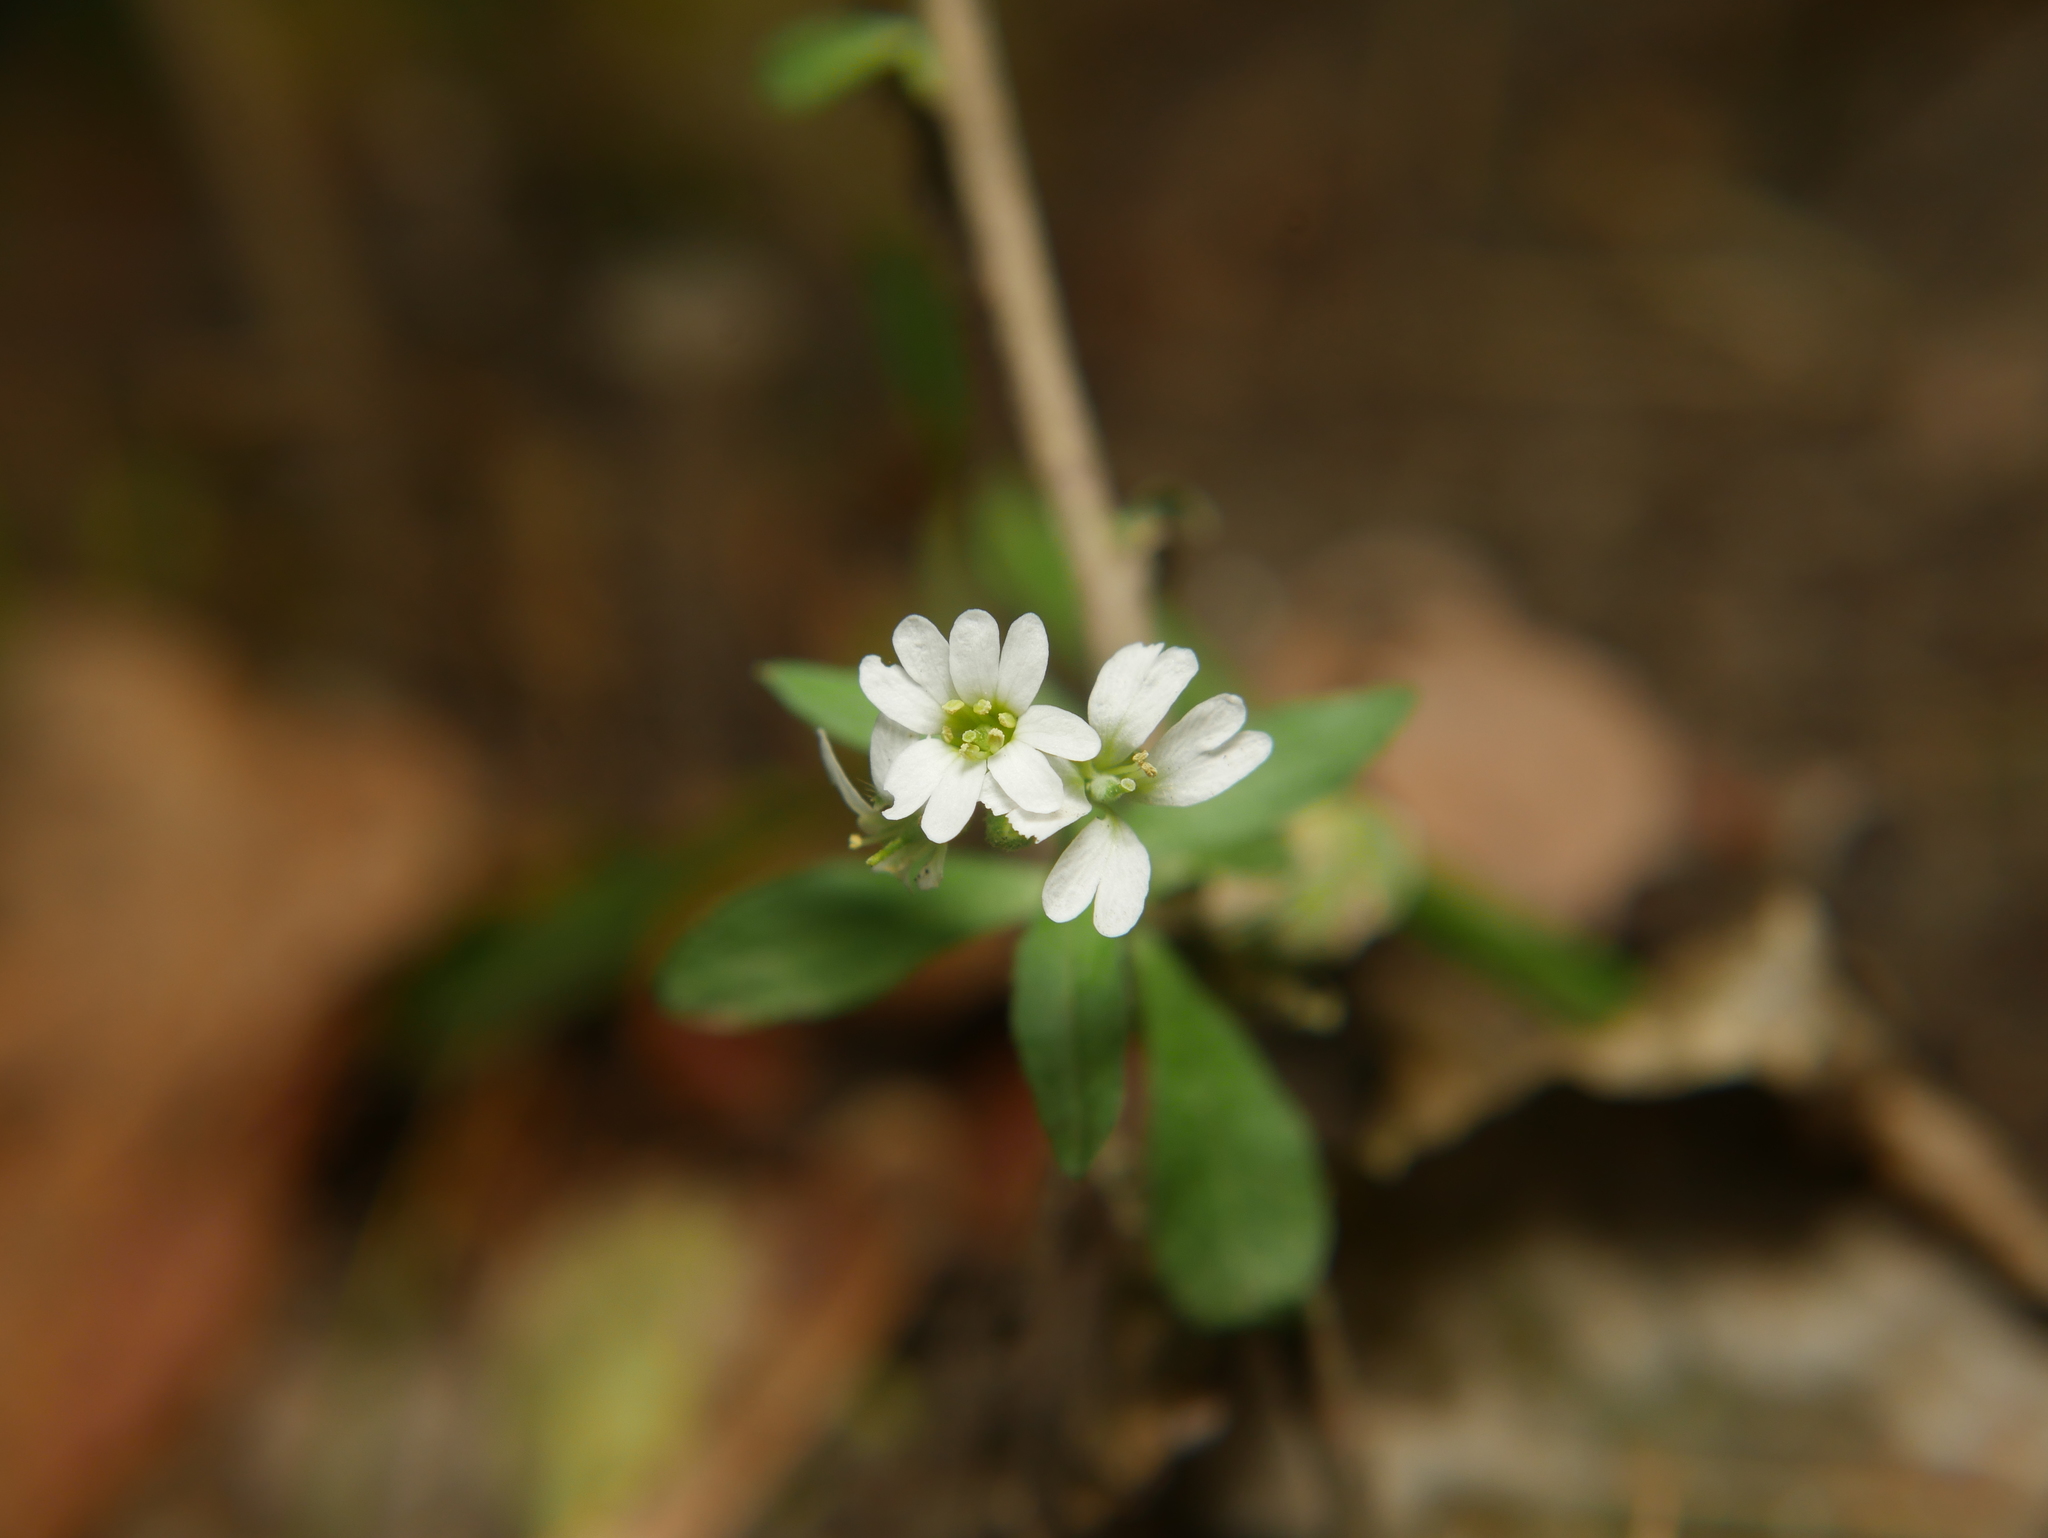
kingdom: Plantae
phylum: Tracheophyta
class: Magnoliopsida
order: Brassicales
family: Brassicaceae
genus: Berteroa
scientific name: Berteroa incana
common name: Hoary alison
